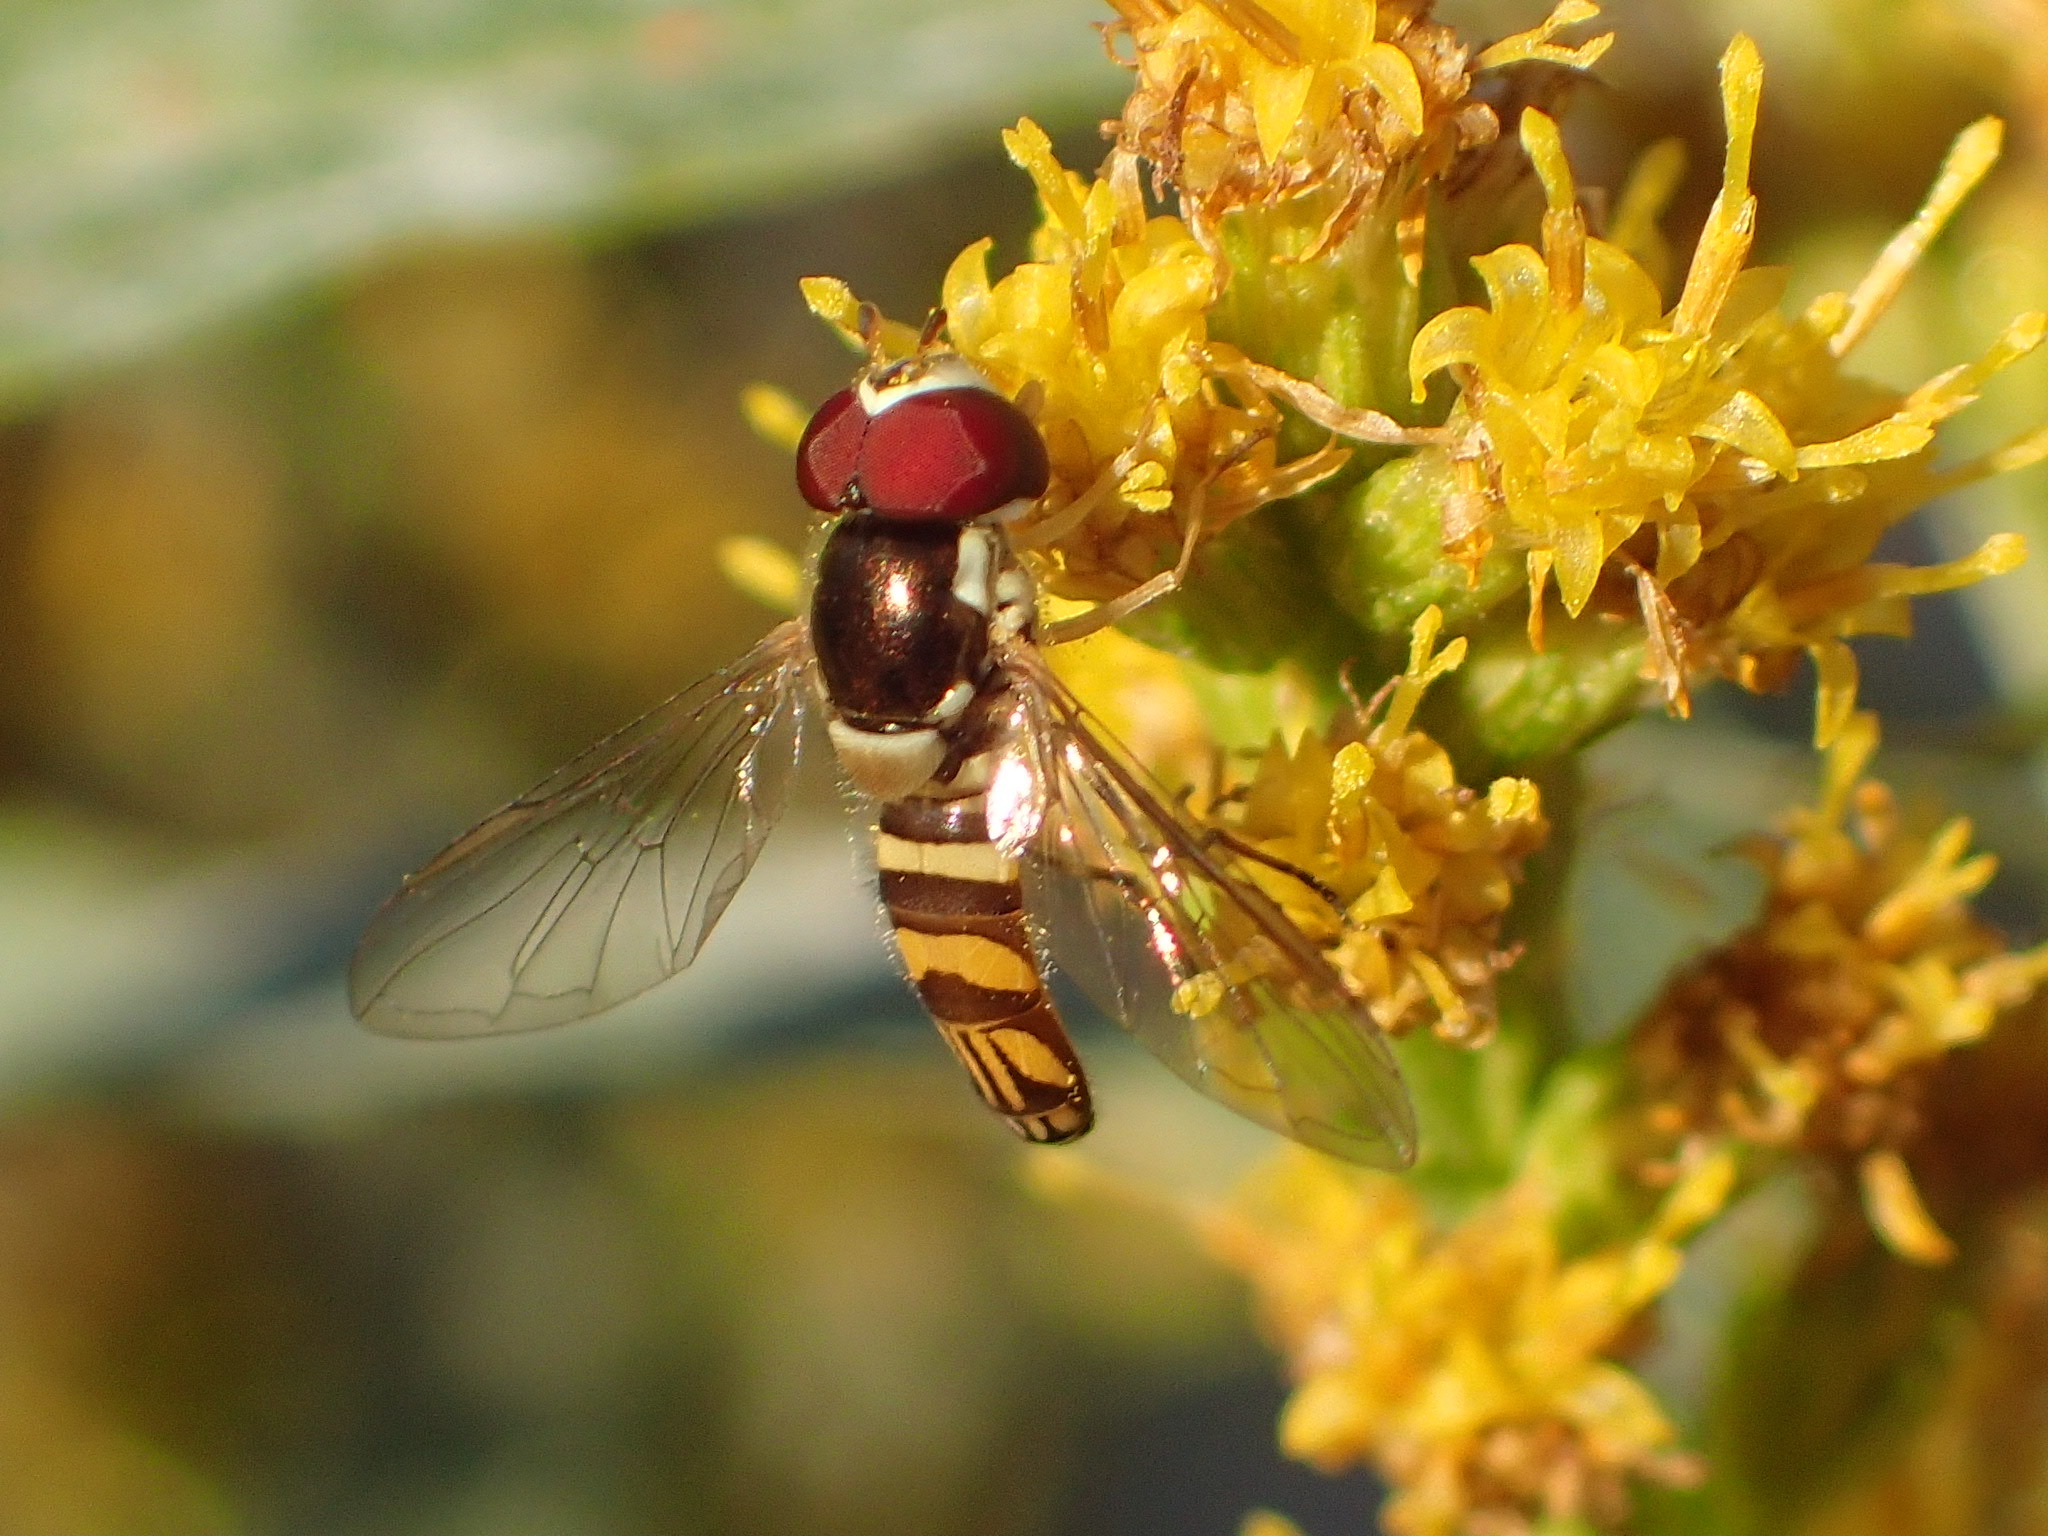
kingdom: Animalia
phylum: Arthropoda
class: Insecta
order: Diptera
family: Syrphidae
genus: Allograpta
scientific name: Allograpta obliqua
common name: Common oblique syrphid
